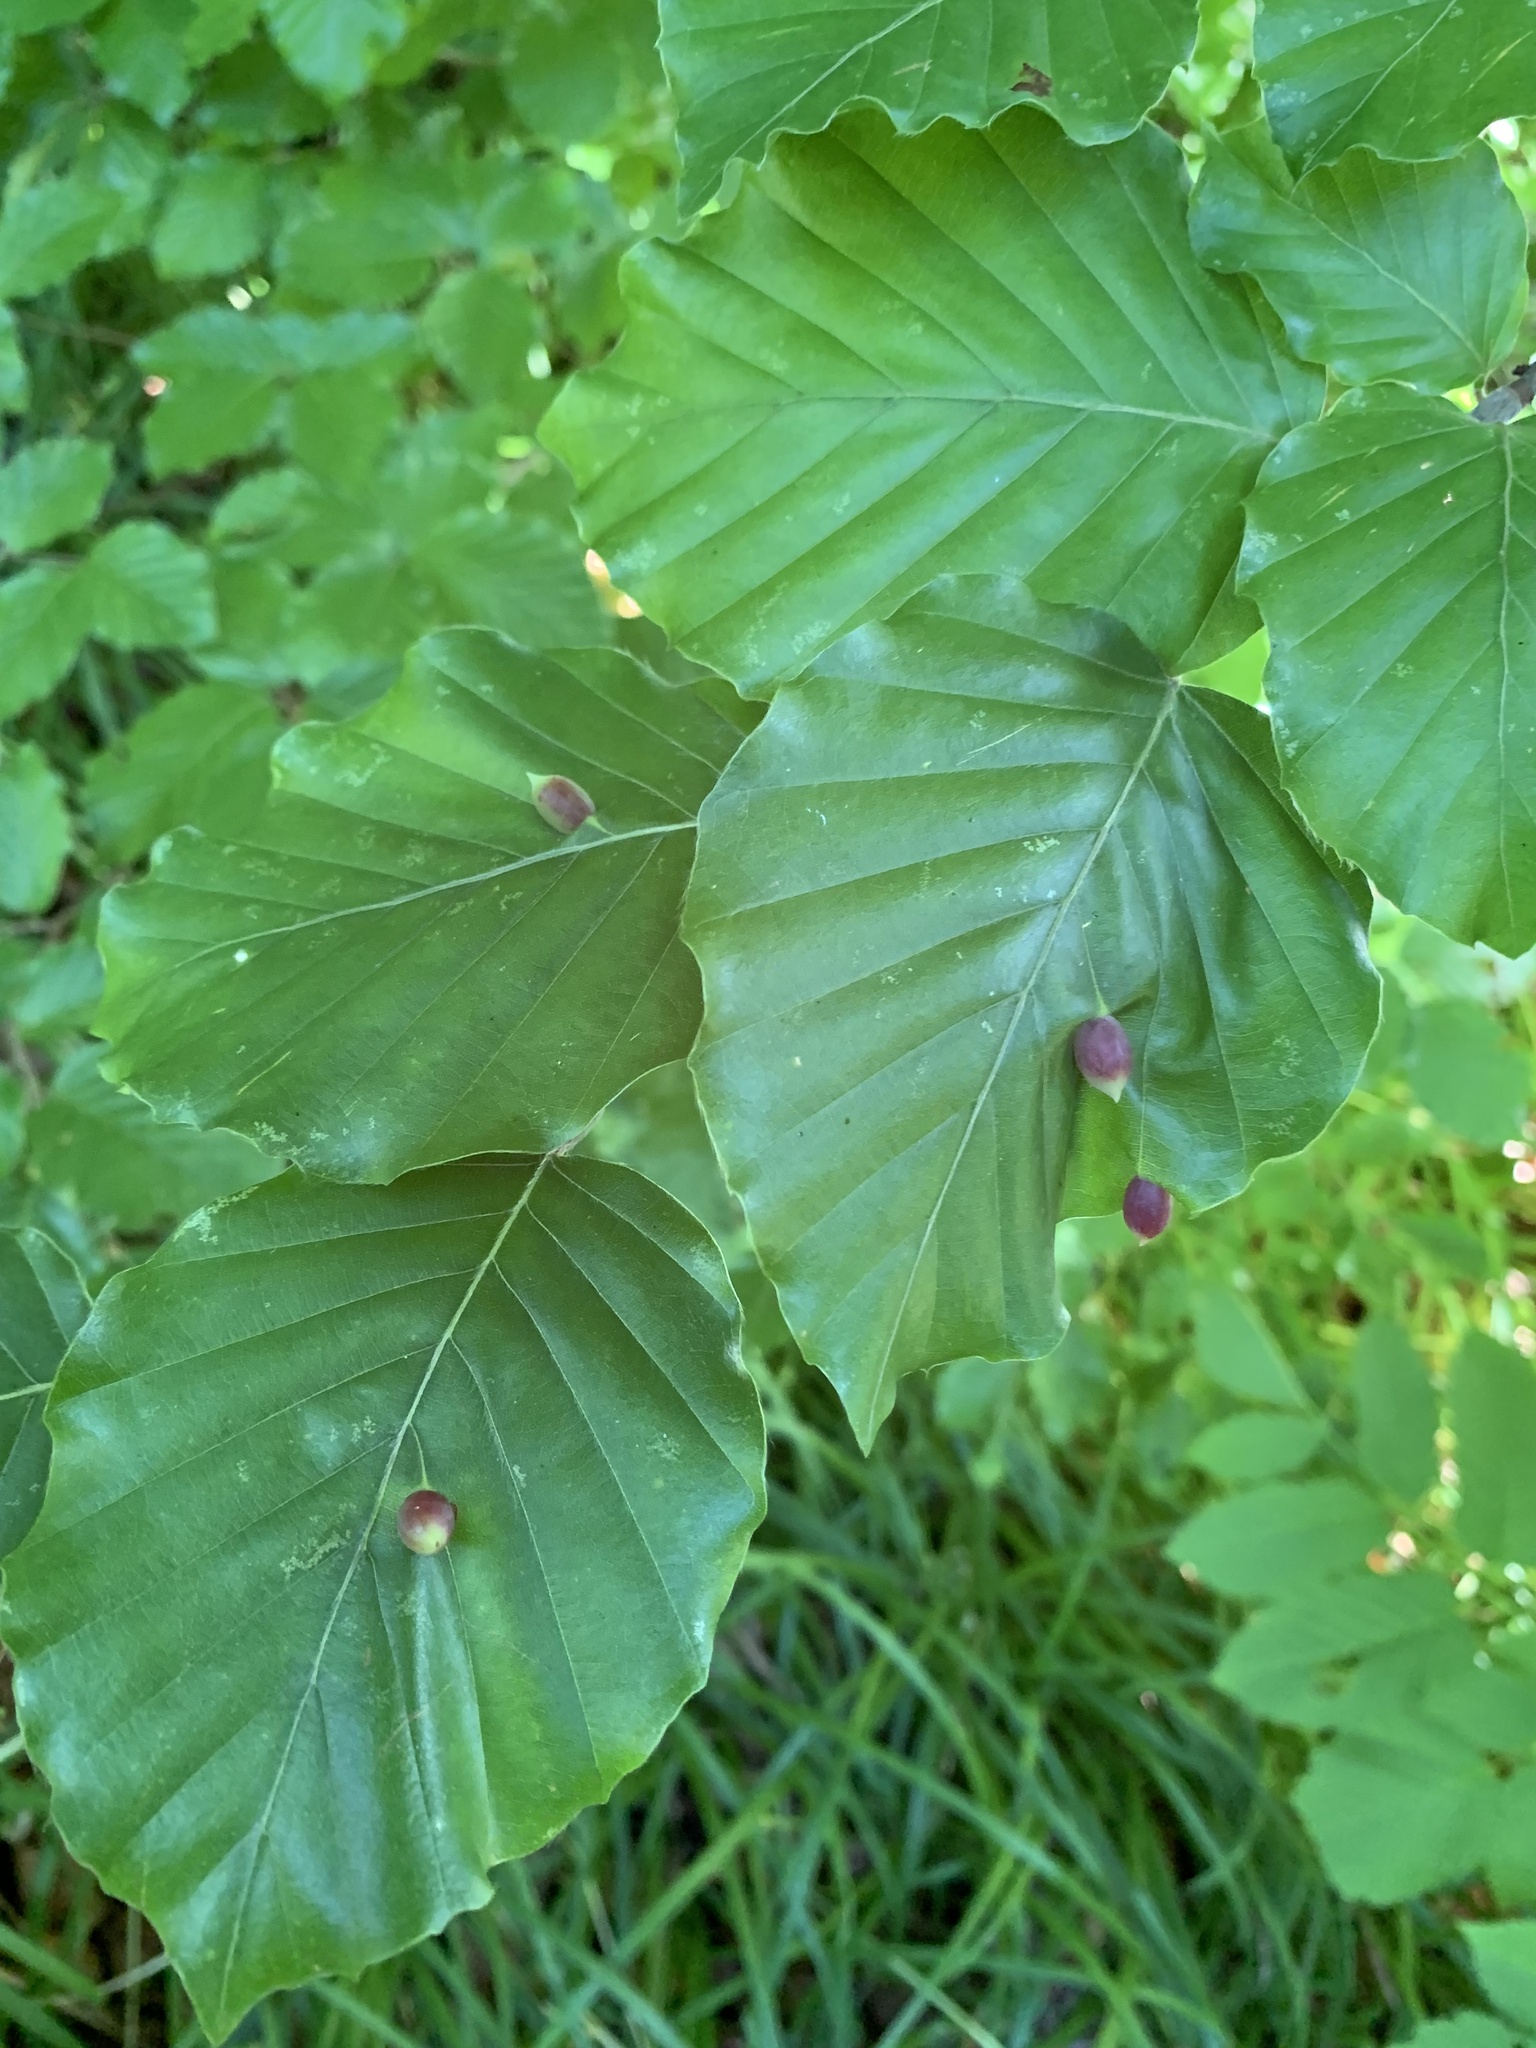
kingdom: Animalia
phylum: Arthropoda
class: Insecta
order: Diptera
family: Cecidomyiidae
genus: Mikiola
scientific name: Mikiola fagi
